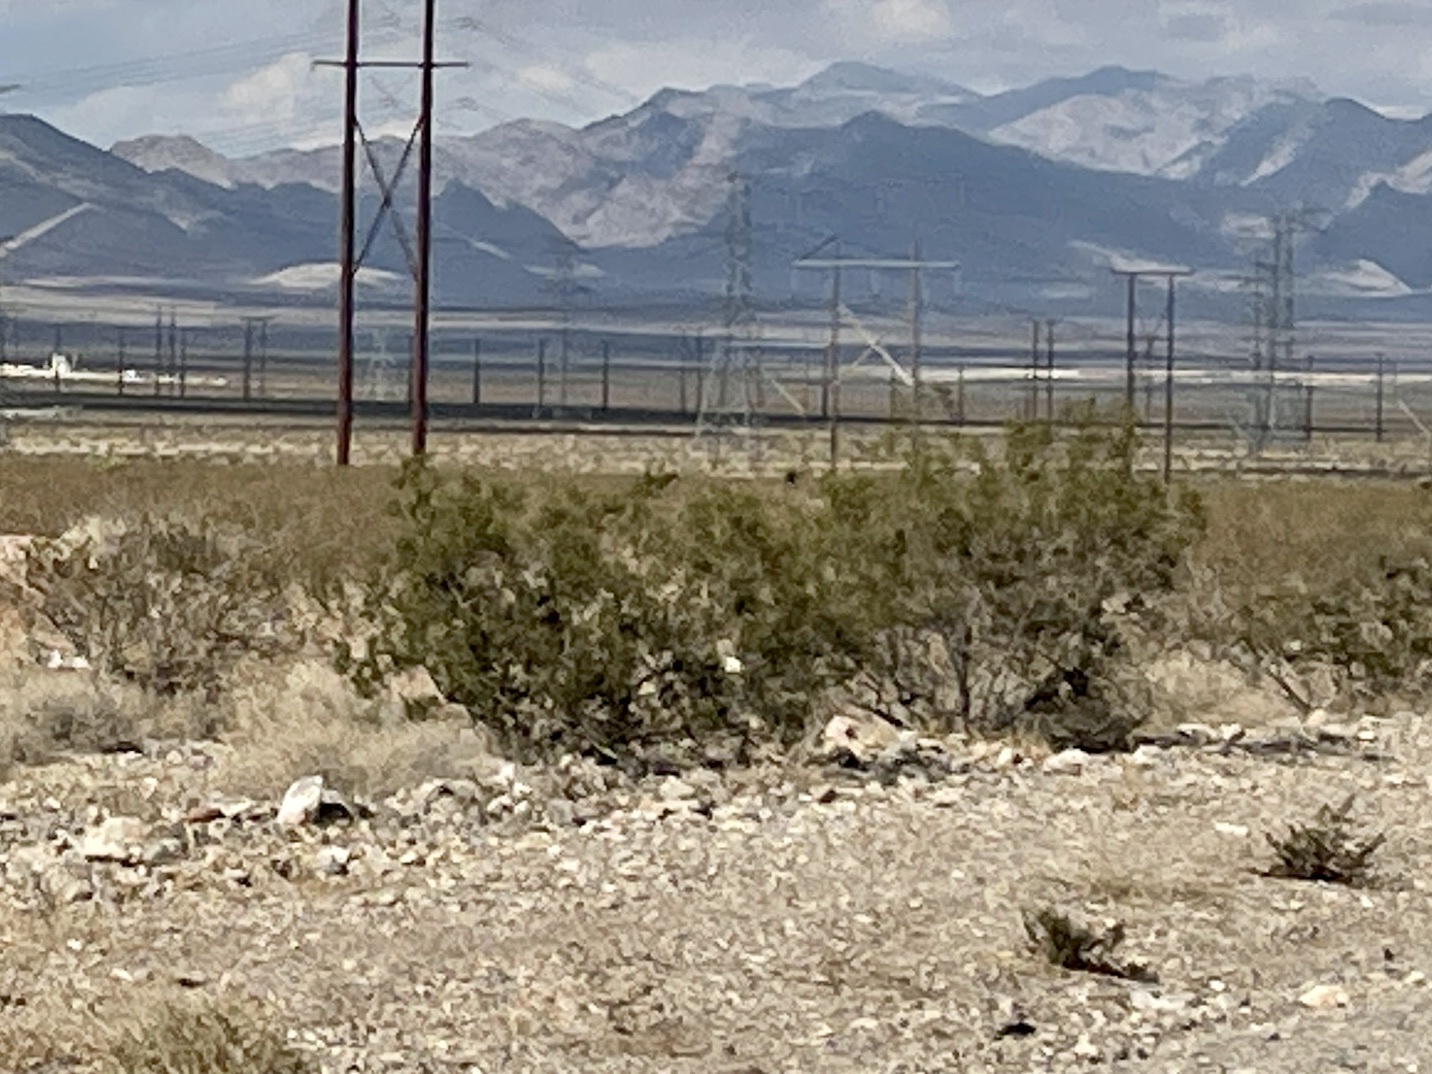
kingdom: Plantae
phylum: Tracheophyta
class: Magnoliopsida
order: Zygophyllales
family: Zygophyllaceae
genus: Larrea
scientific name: Larrea tridentata
